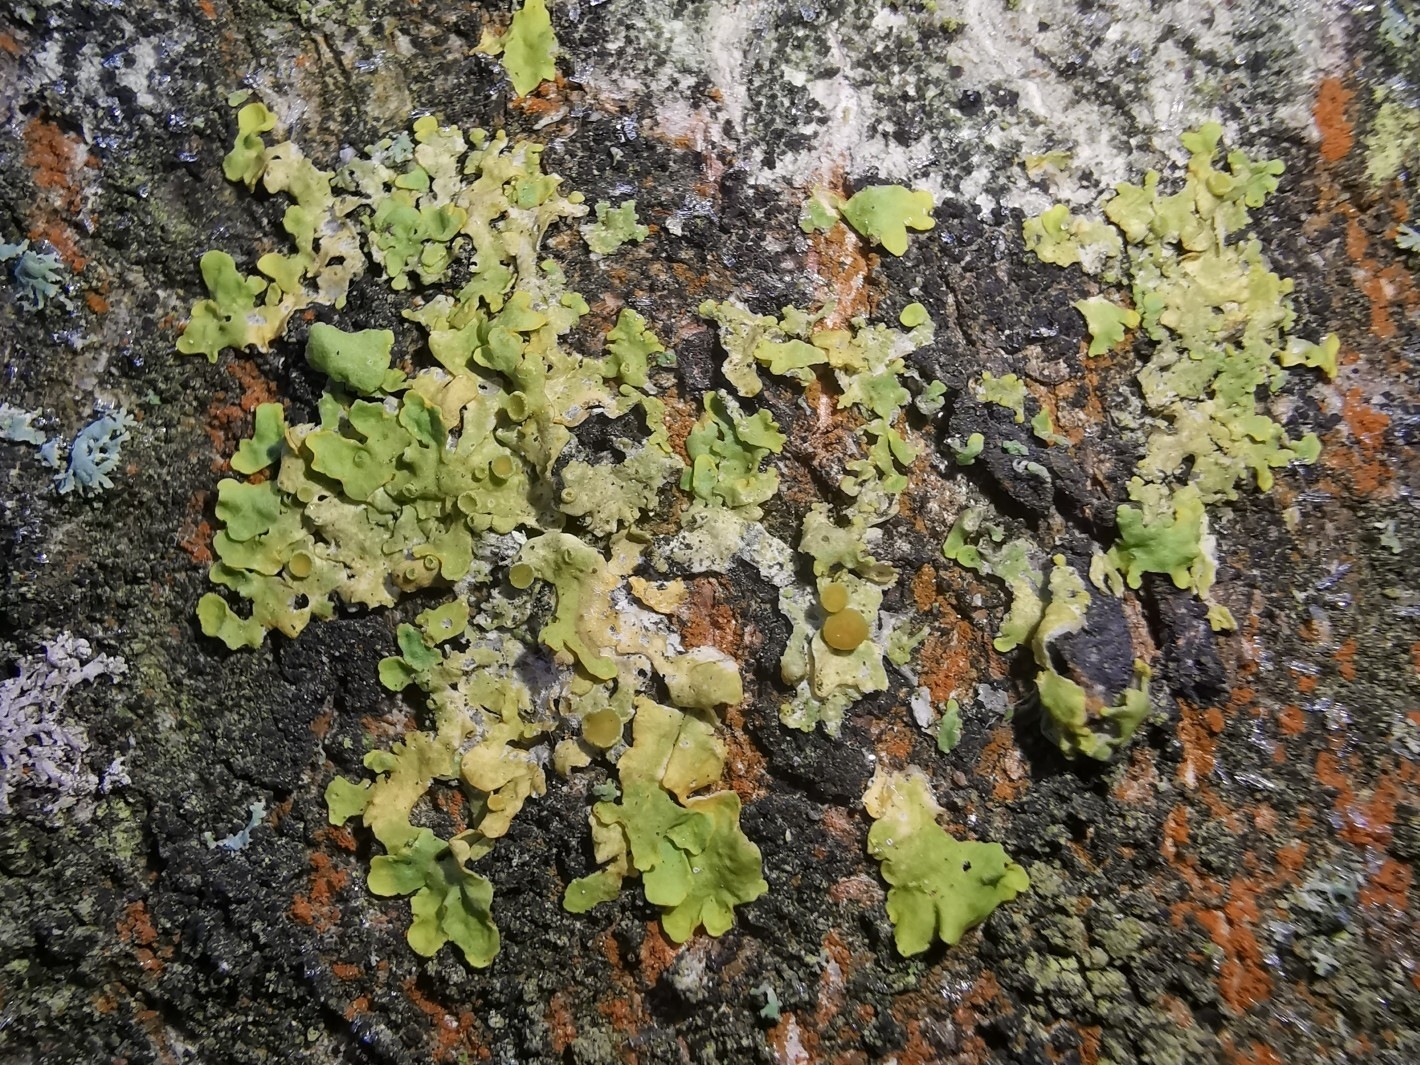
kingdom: Fungi
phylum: Ascomycota
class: Lecanoromycetes
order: Teloschistales
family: Teloschistaceae
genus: Xanthoria
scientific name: Xanthoria parietina
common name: Common orange lichen
